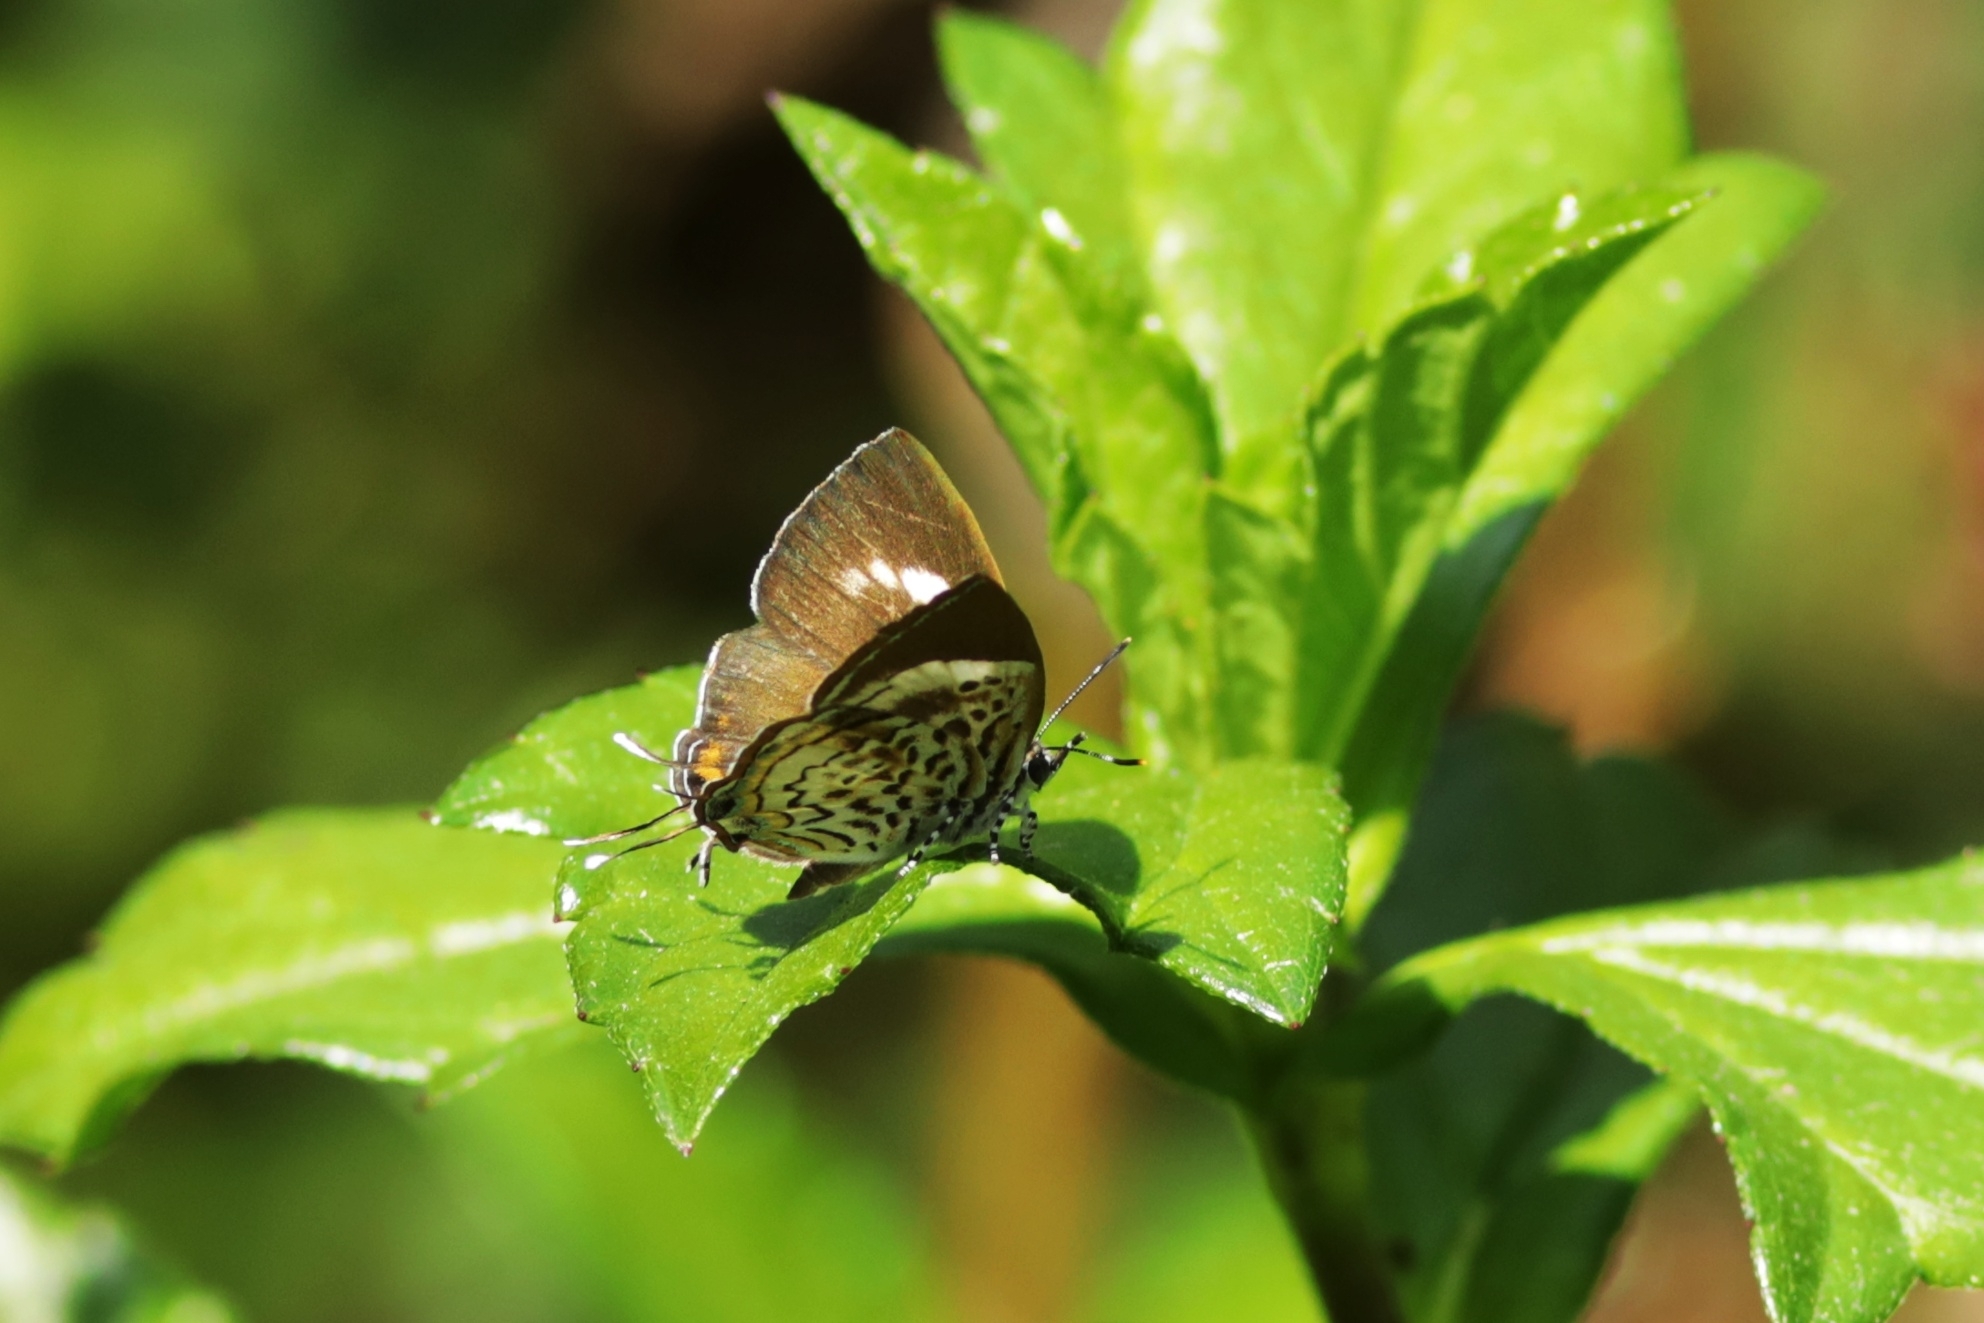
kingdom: Animalia
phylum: Arthropoda
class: Insecta
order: Lepidoptera
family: Lycaenidae
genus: Rathinda
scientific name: Rathinda amor
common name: Monkey puzzle
